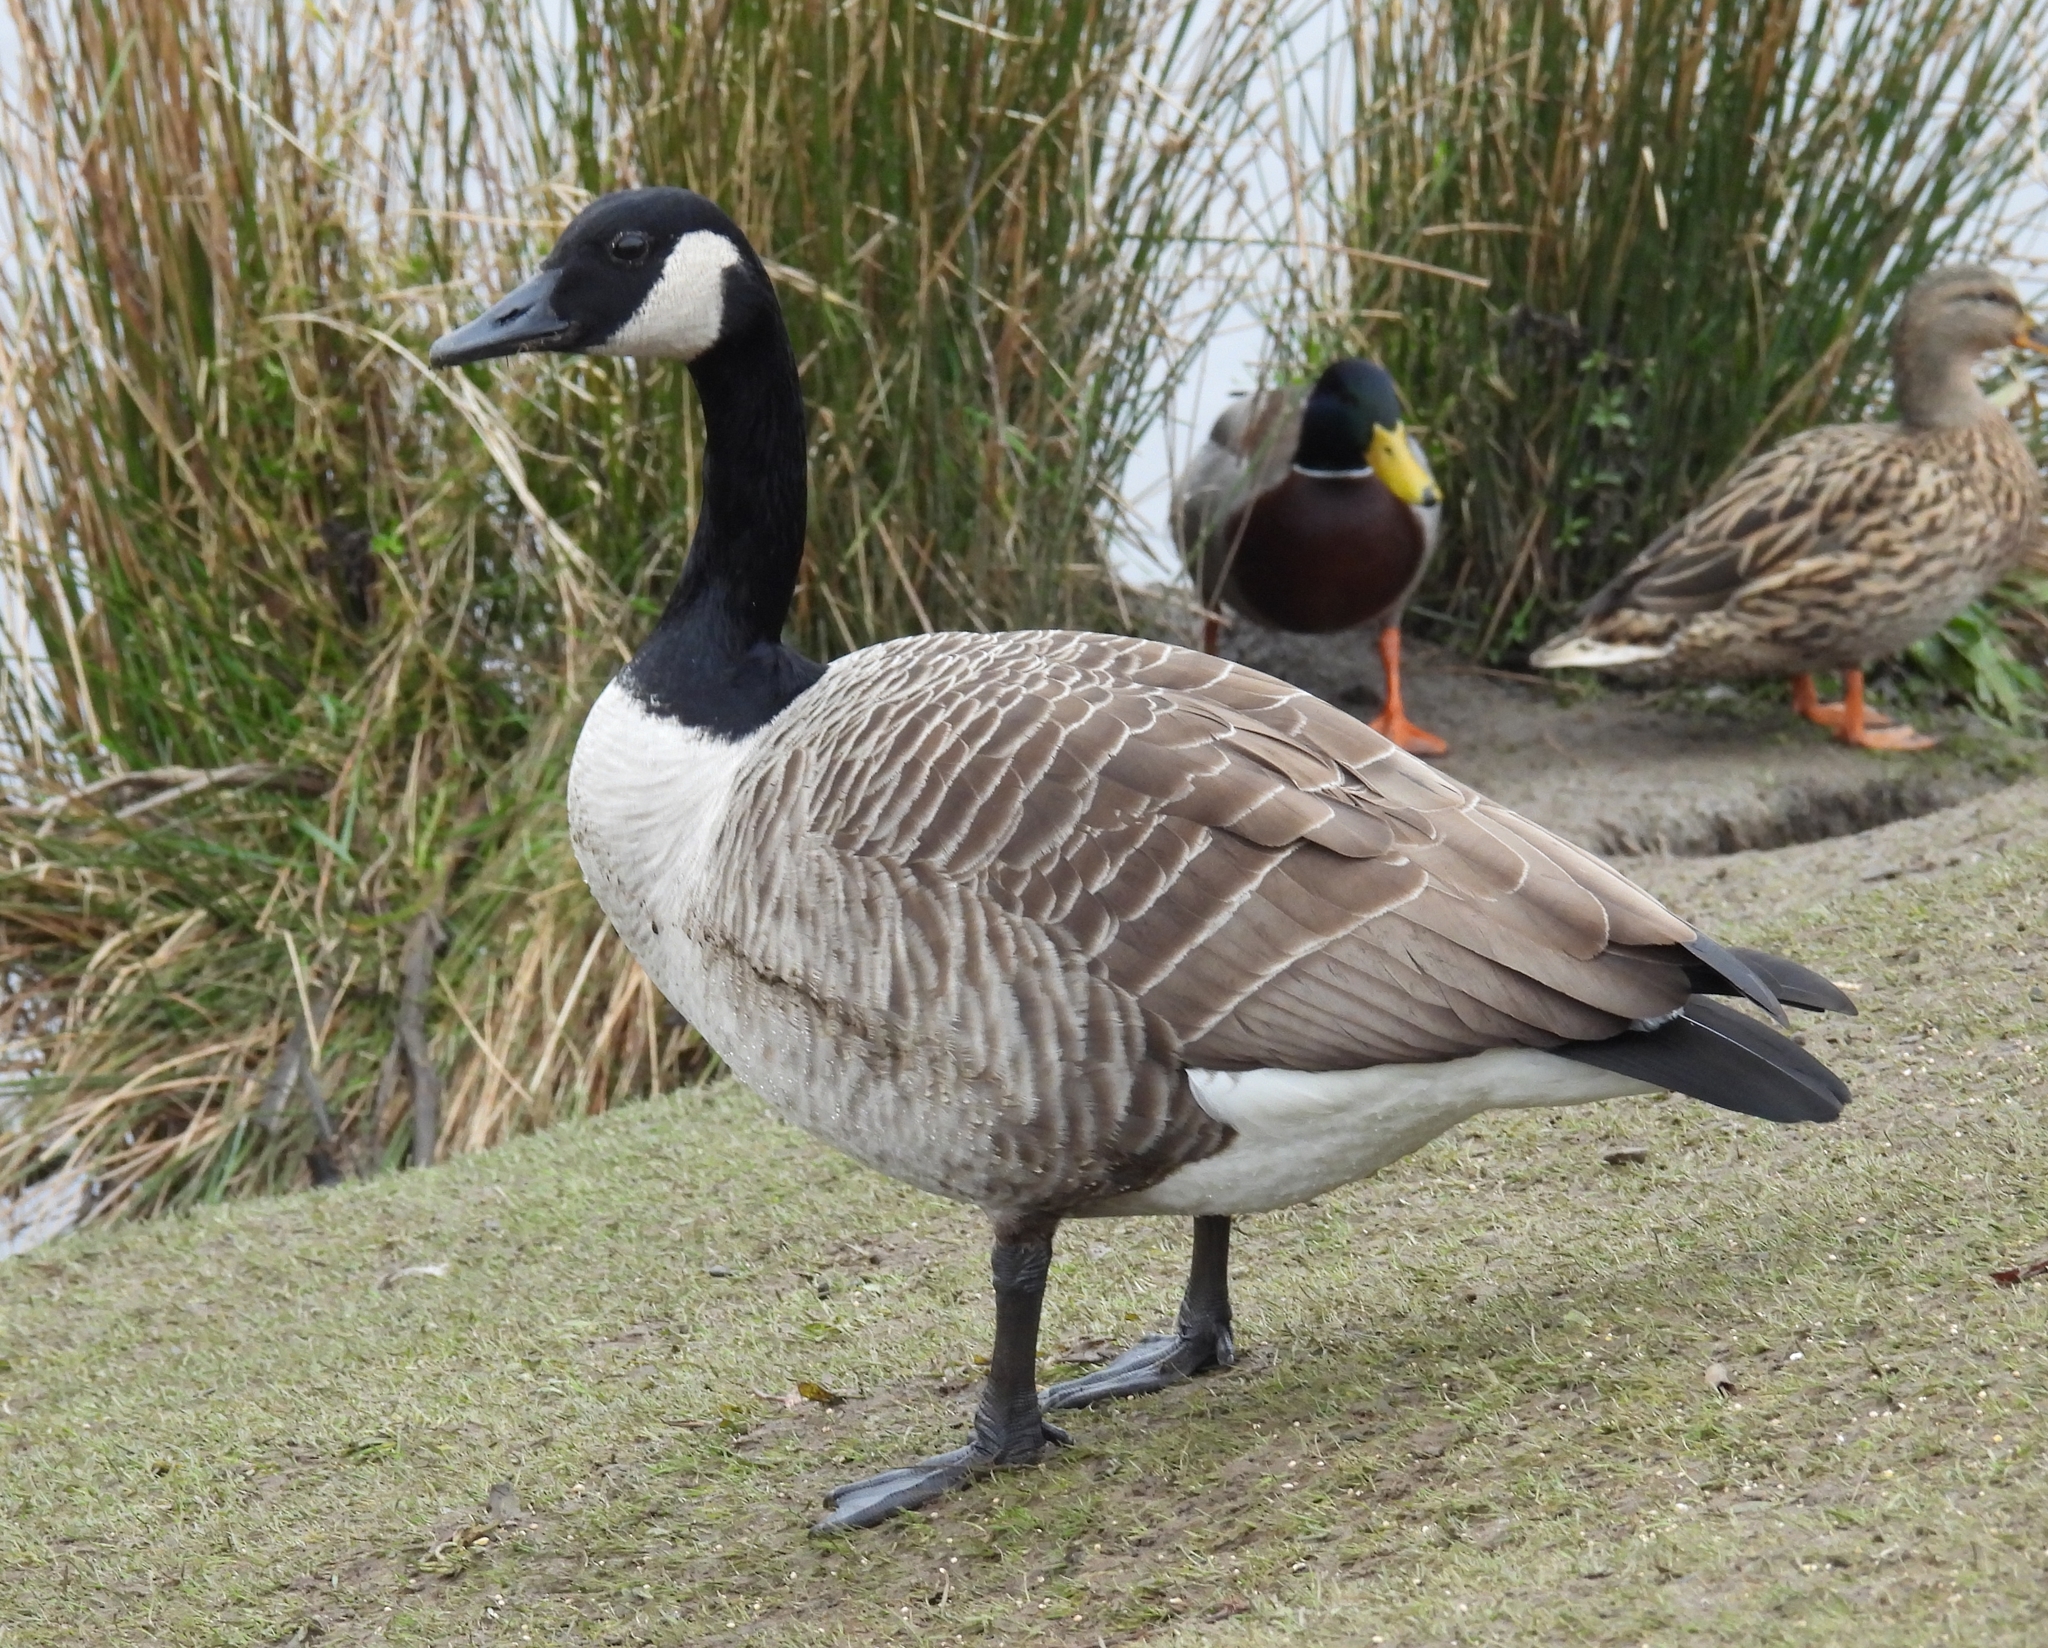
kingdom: Animalia
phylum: Chordata
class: Aves
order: Anseriformes
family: Anatidae
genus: Branta
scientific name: Branta canadensis
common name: Canada goose
